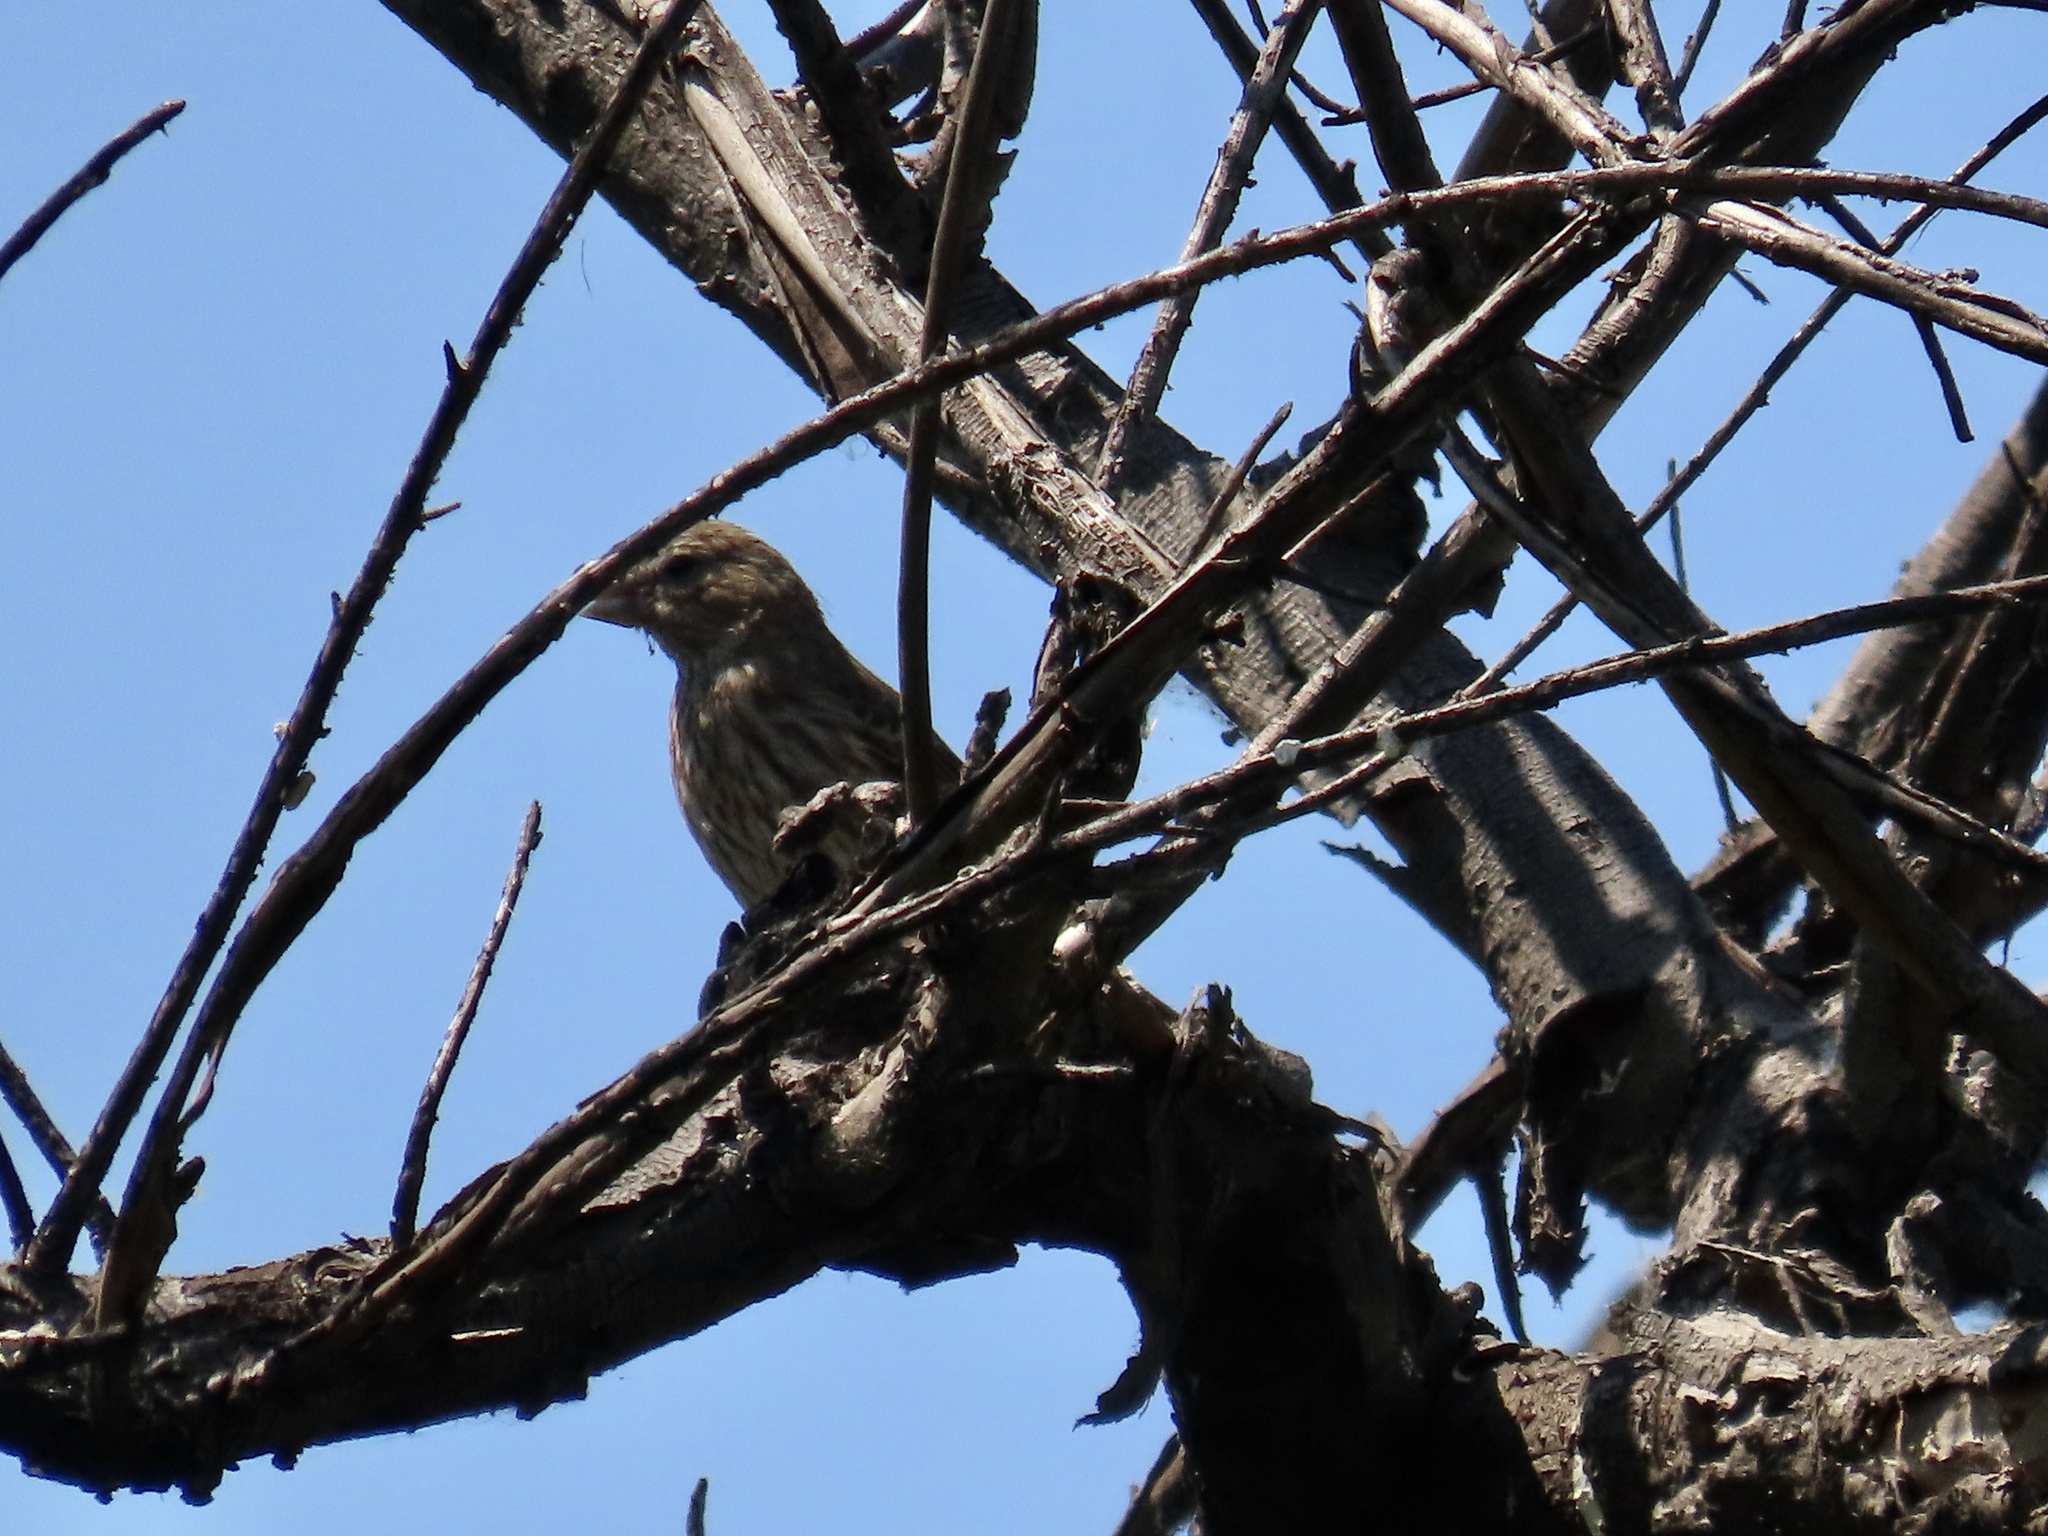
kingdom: Animalia
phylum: Chordata
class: Aves
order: Passeriformes
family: Fringillidae
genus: Haemorhous
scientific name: Haemorhous mexicanus
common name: House finch
